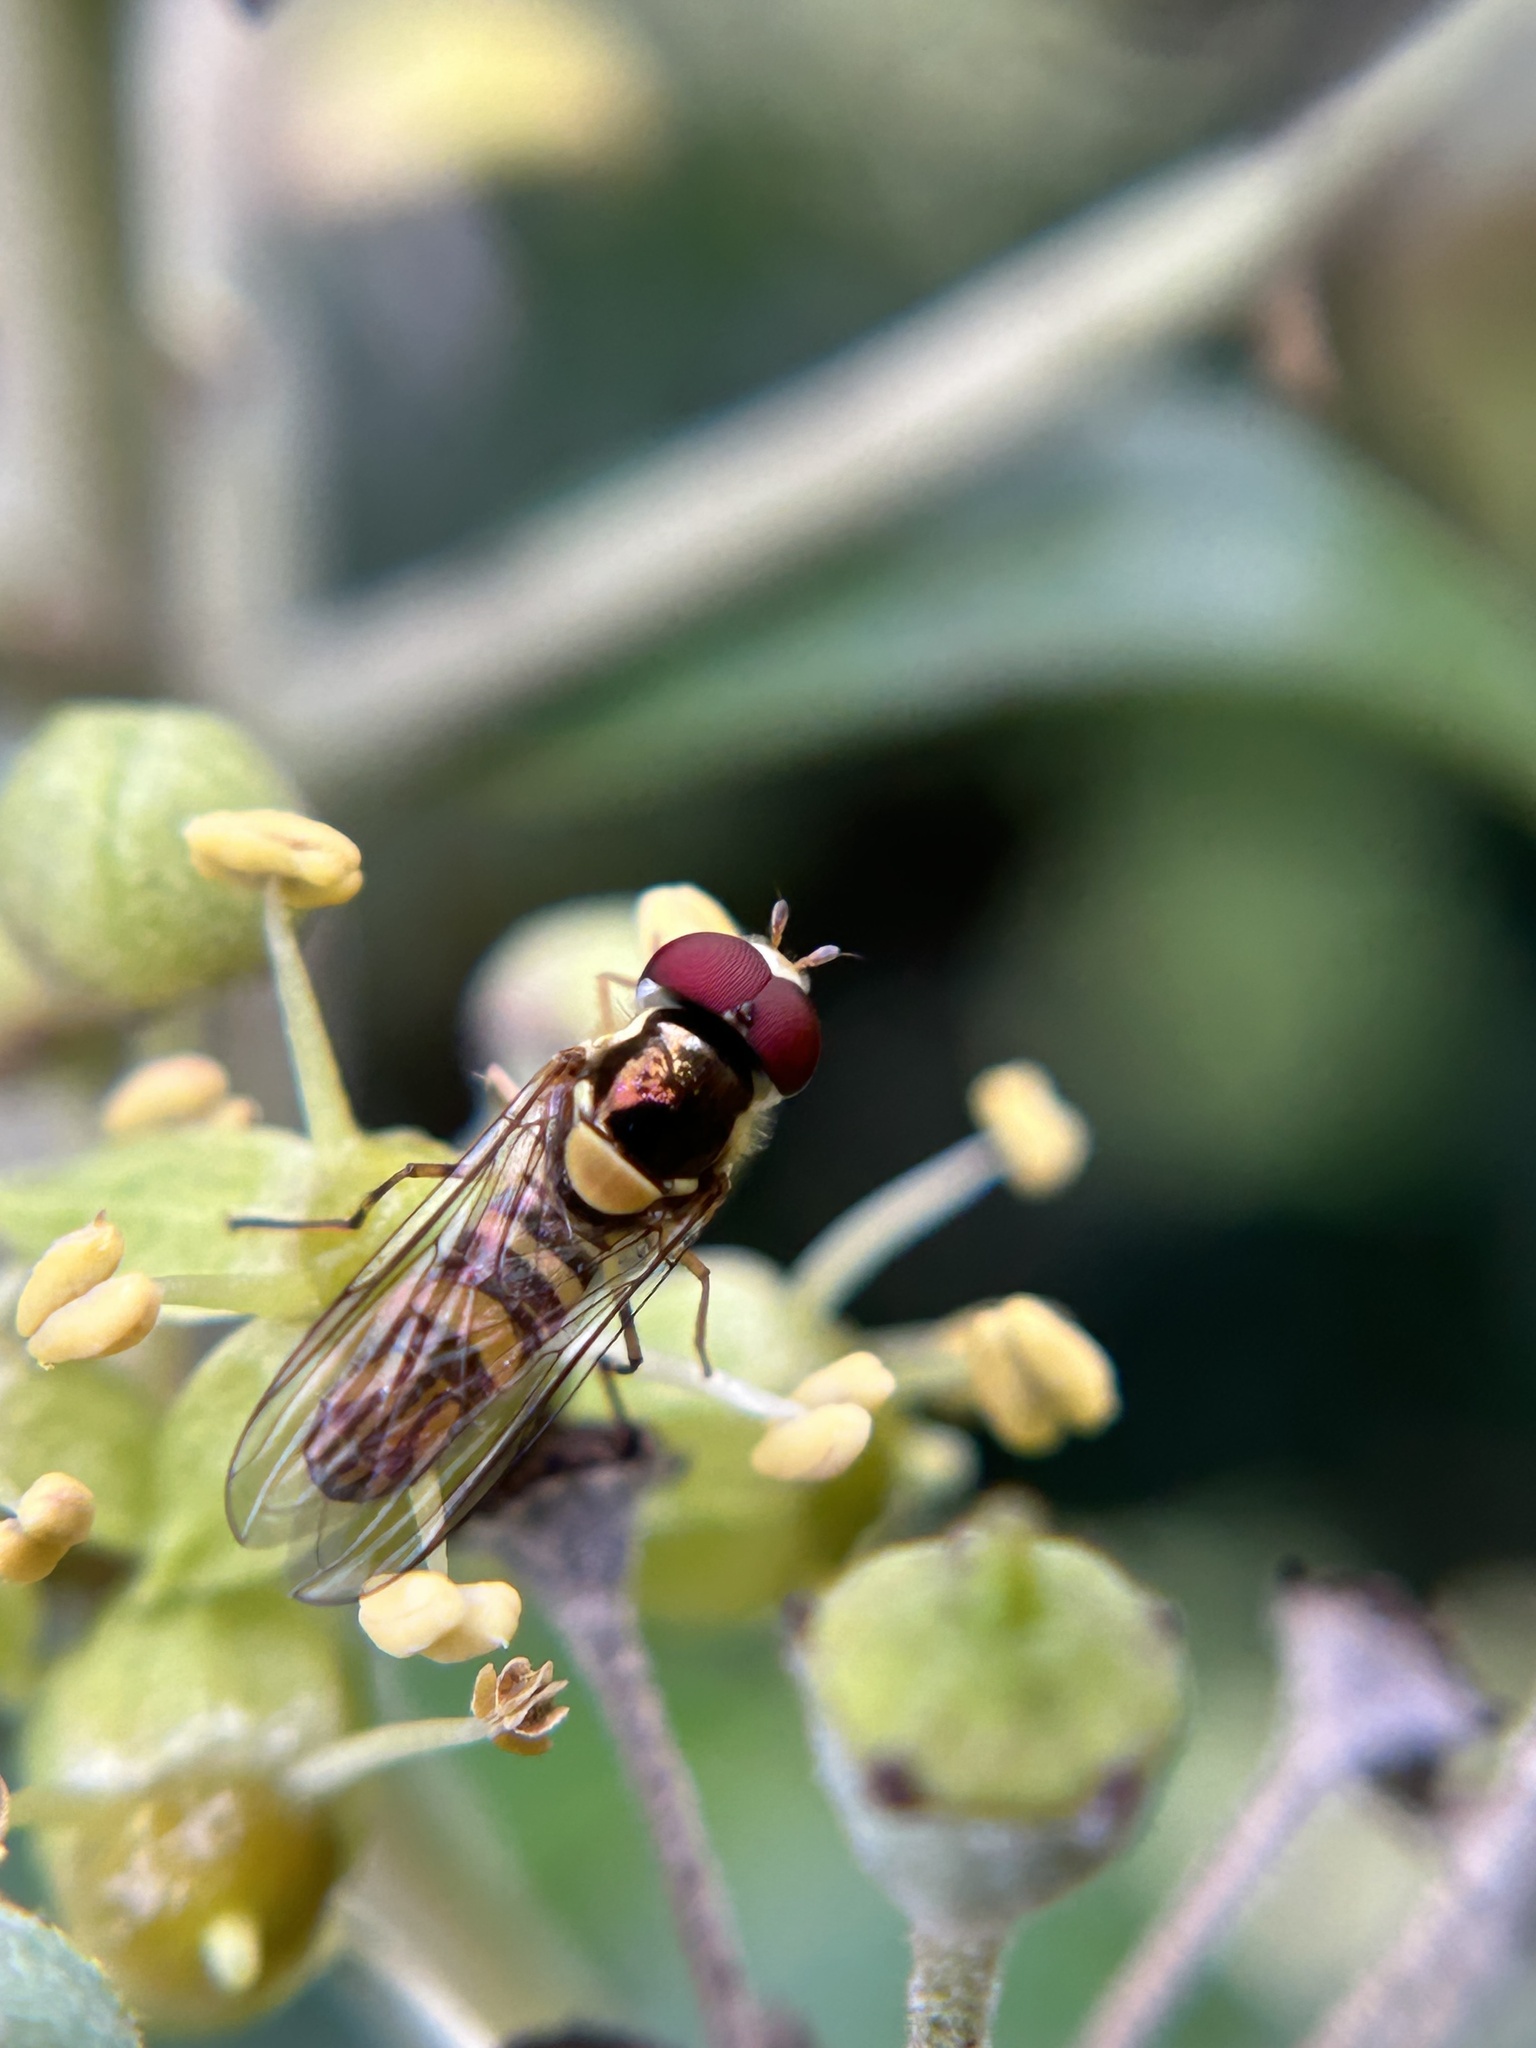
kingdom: Animalia
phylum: Arthropoda
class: Insecta
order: Diptera
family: Syrphidae
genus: Allograpta
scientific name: Allograpta obliqua
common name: Common oblique syrphid
